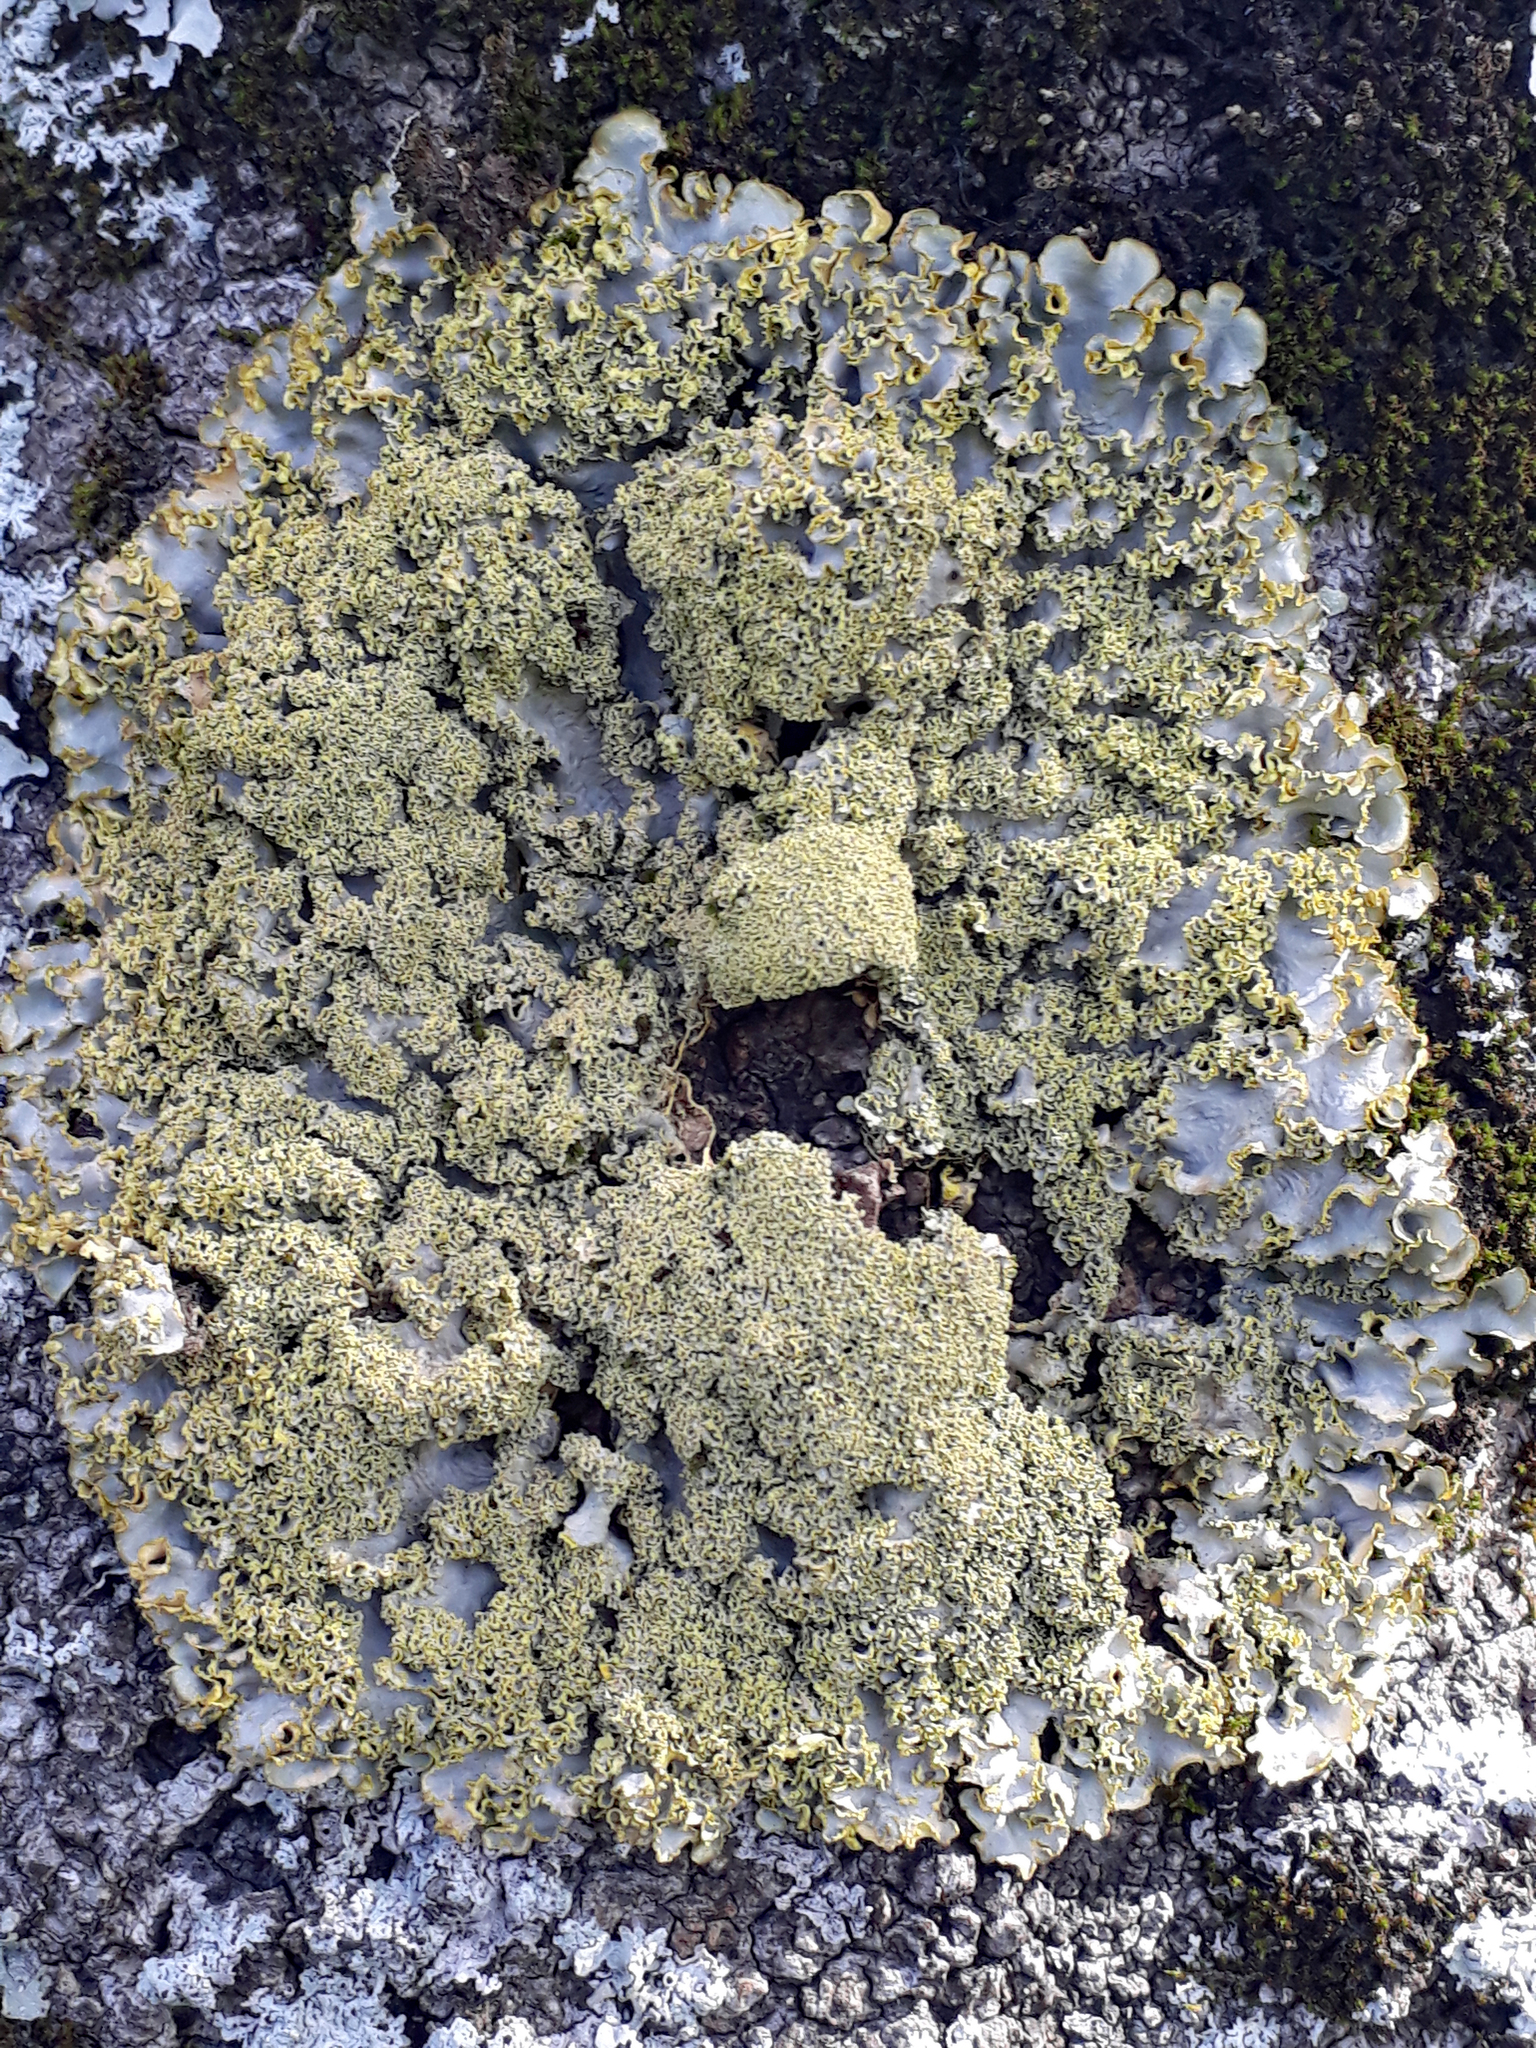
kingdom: Fungi
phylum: Ascomycota
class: Lecanoromycetes
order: Peltigerales
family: Lobariaceae
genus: Podostictina
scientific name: Podostictina pickeringii
